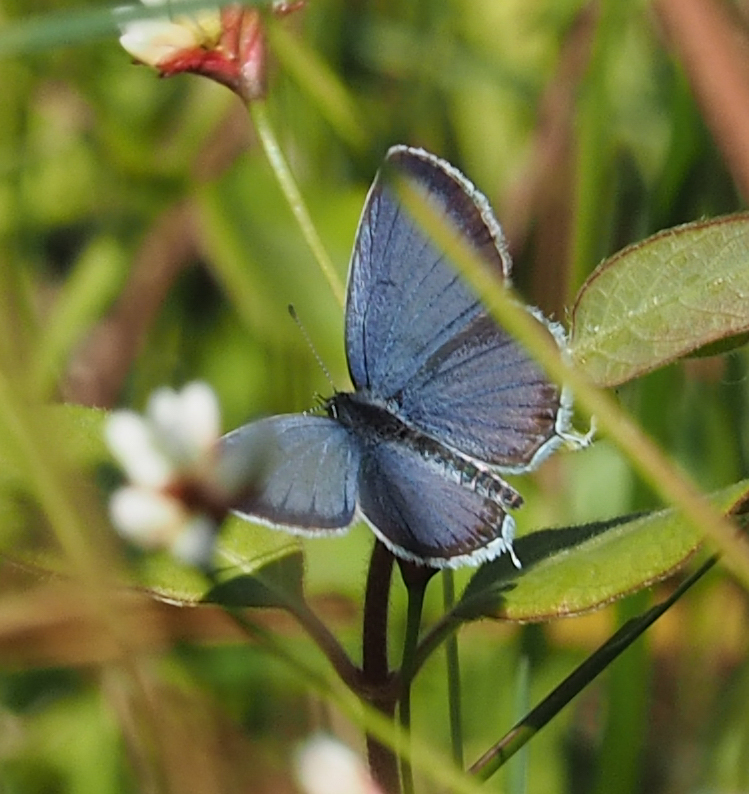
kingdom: Animalia
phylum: Arthropoda
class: Insecta
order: Lepidoptera
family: Lycaenidae
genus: Elkalyce
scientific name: Elkalyce comyntas
